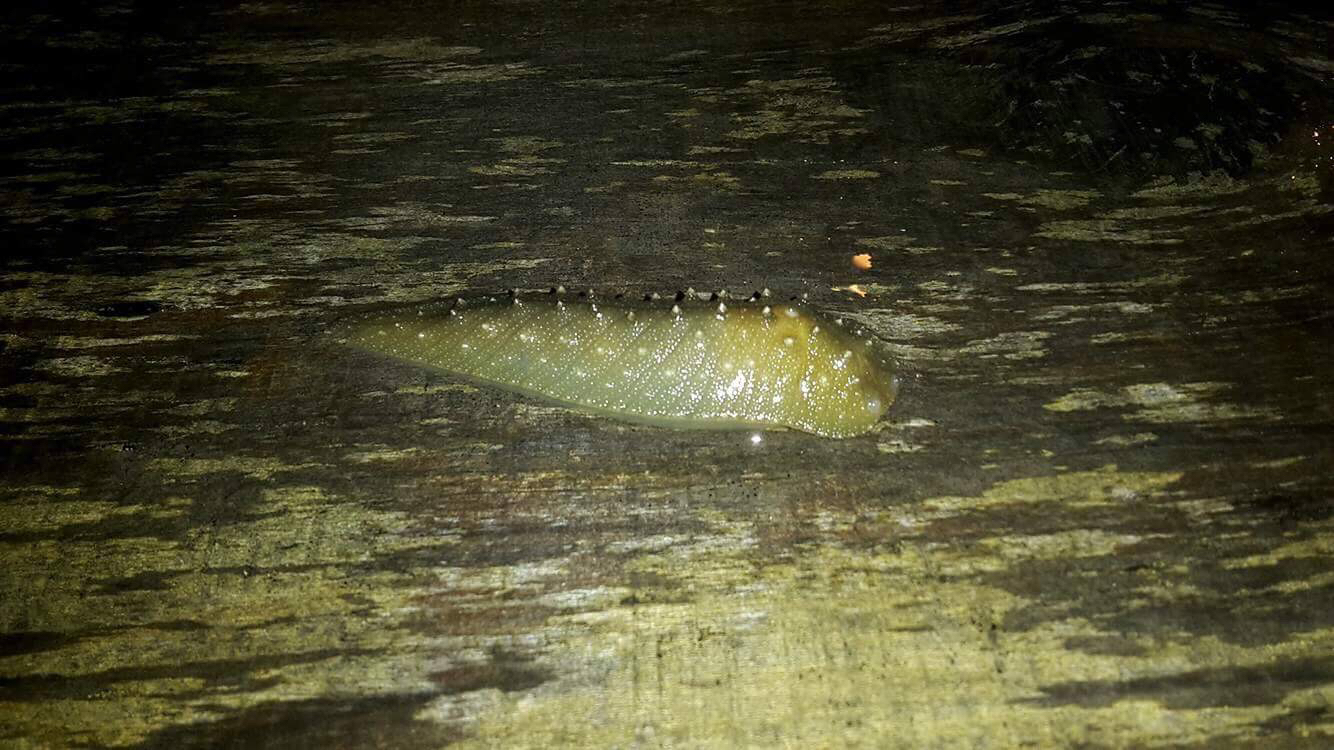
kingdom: Animalia
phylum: Mollusca
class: Gastropoda
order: Stylommatophora
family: Athoracophoridae
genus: Athoracophorus
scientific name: Athoracophorus papillatus
